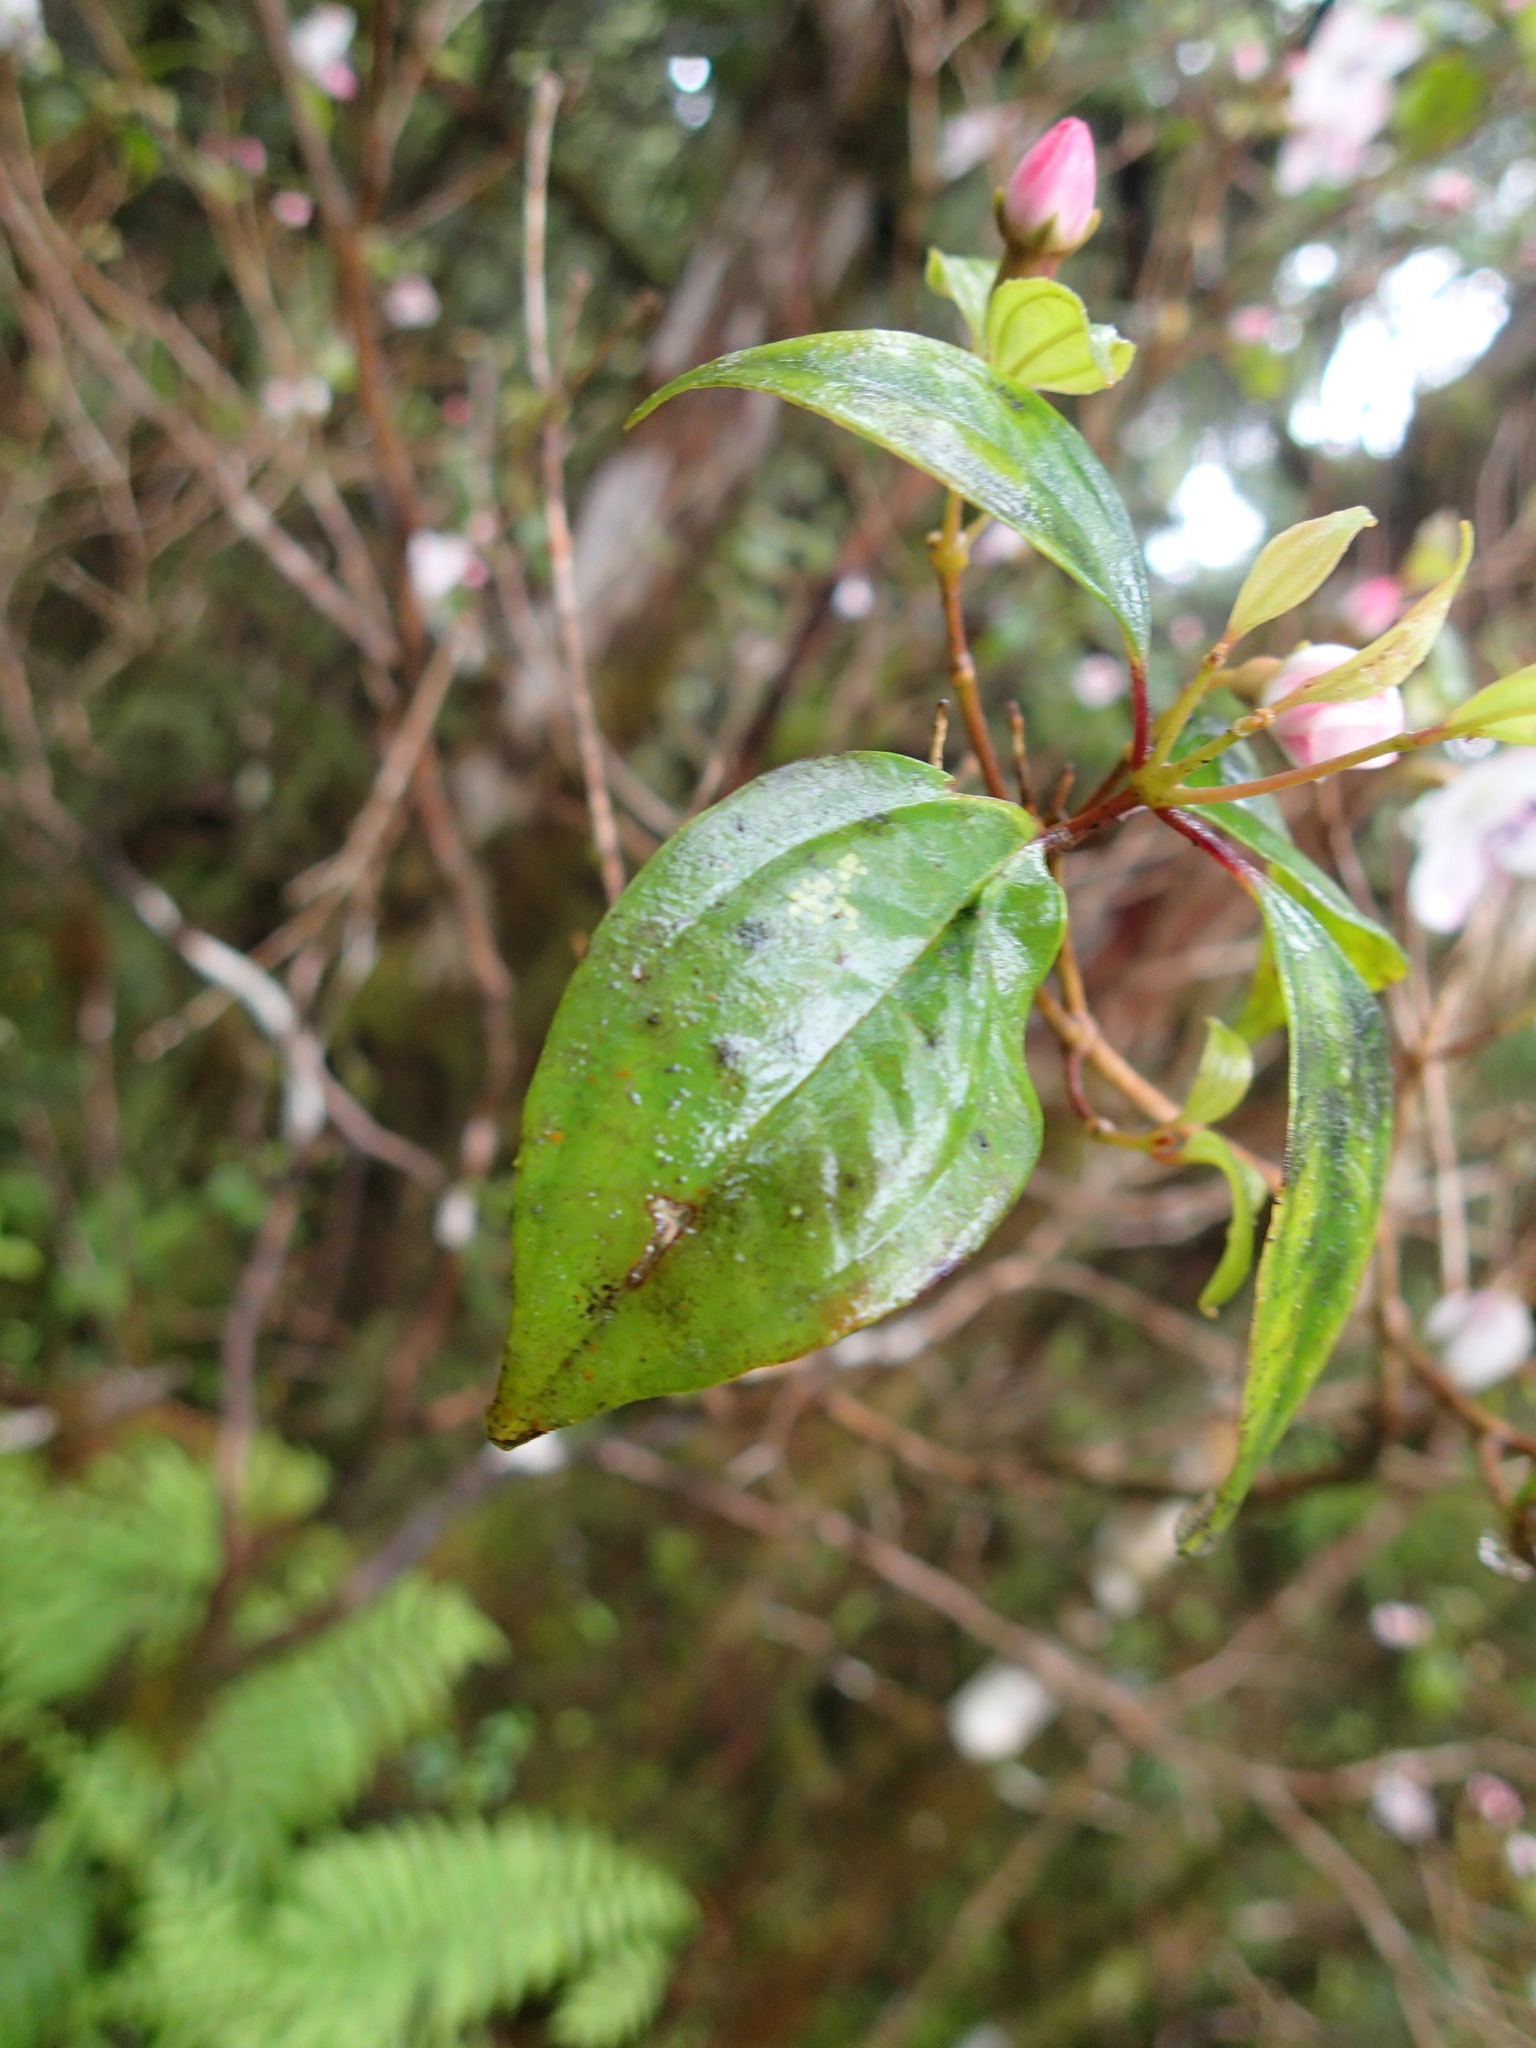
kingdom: Plantae
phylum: Tracheophyta
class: Magnoliopsida
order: Myrtales
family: Melastomataceae
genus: Barthea
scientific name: Barthea barthei
